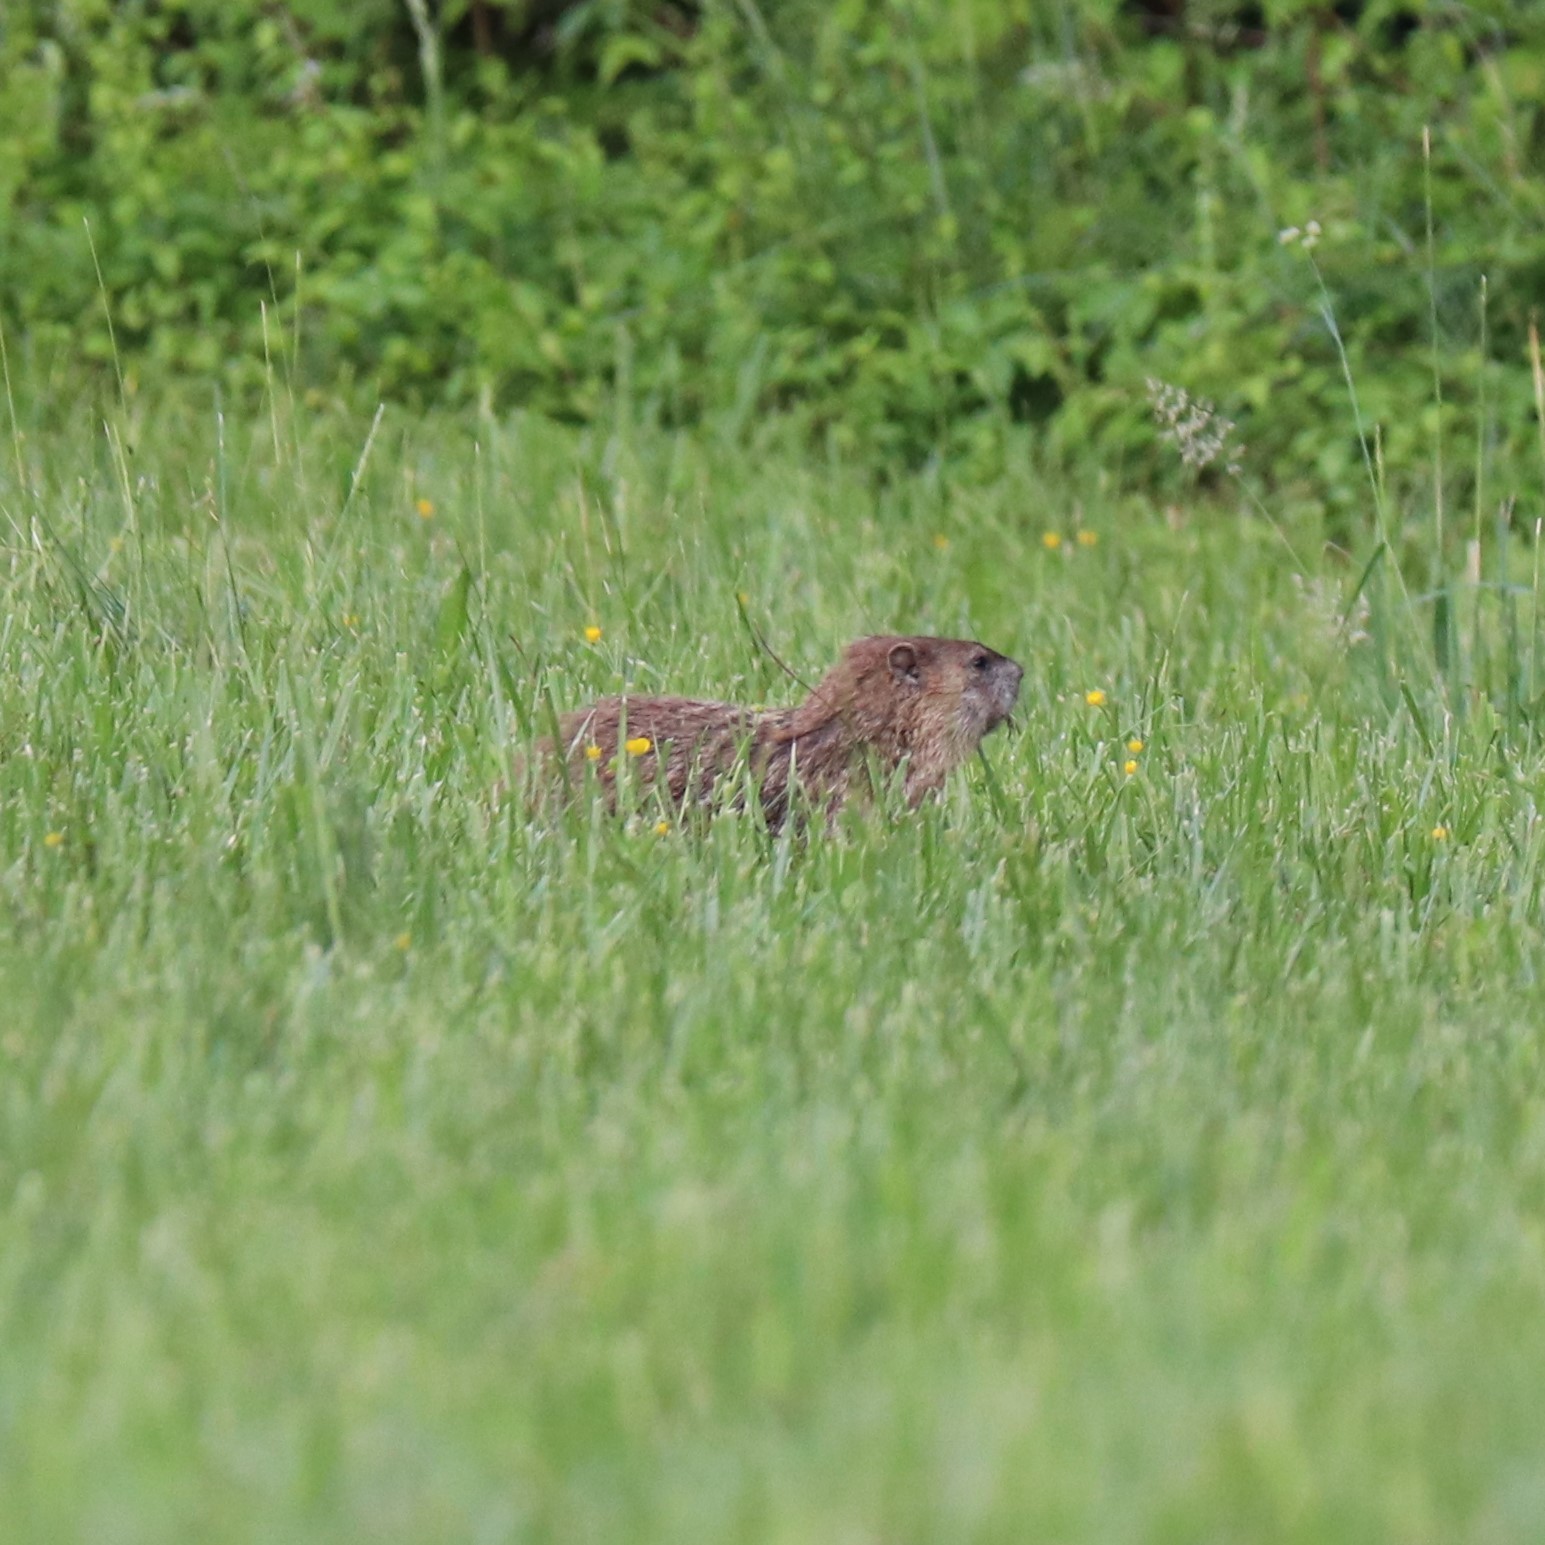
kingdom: Animalia
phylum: Chordata
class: Mammalia
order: Rodentia
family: Sciuridae
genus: Marmota
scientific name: Marmota monax
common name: Groundhog
